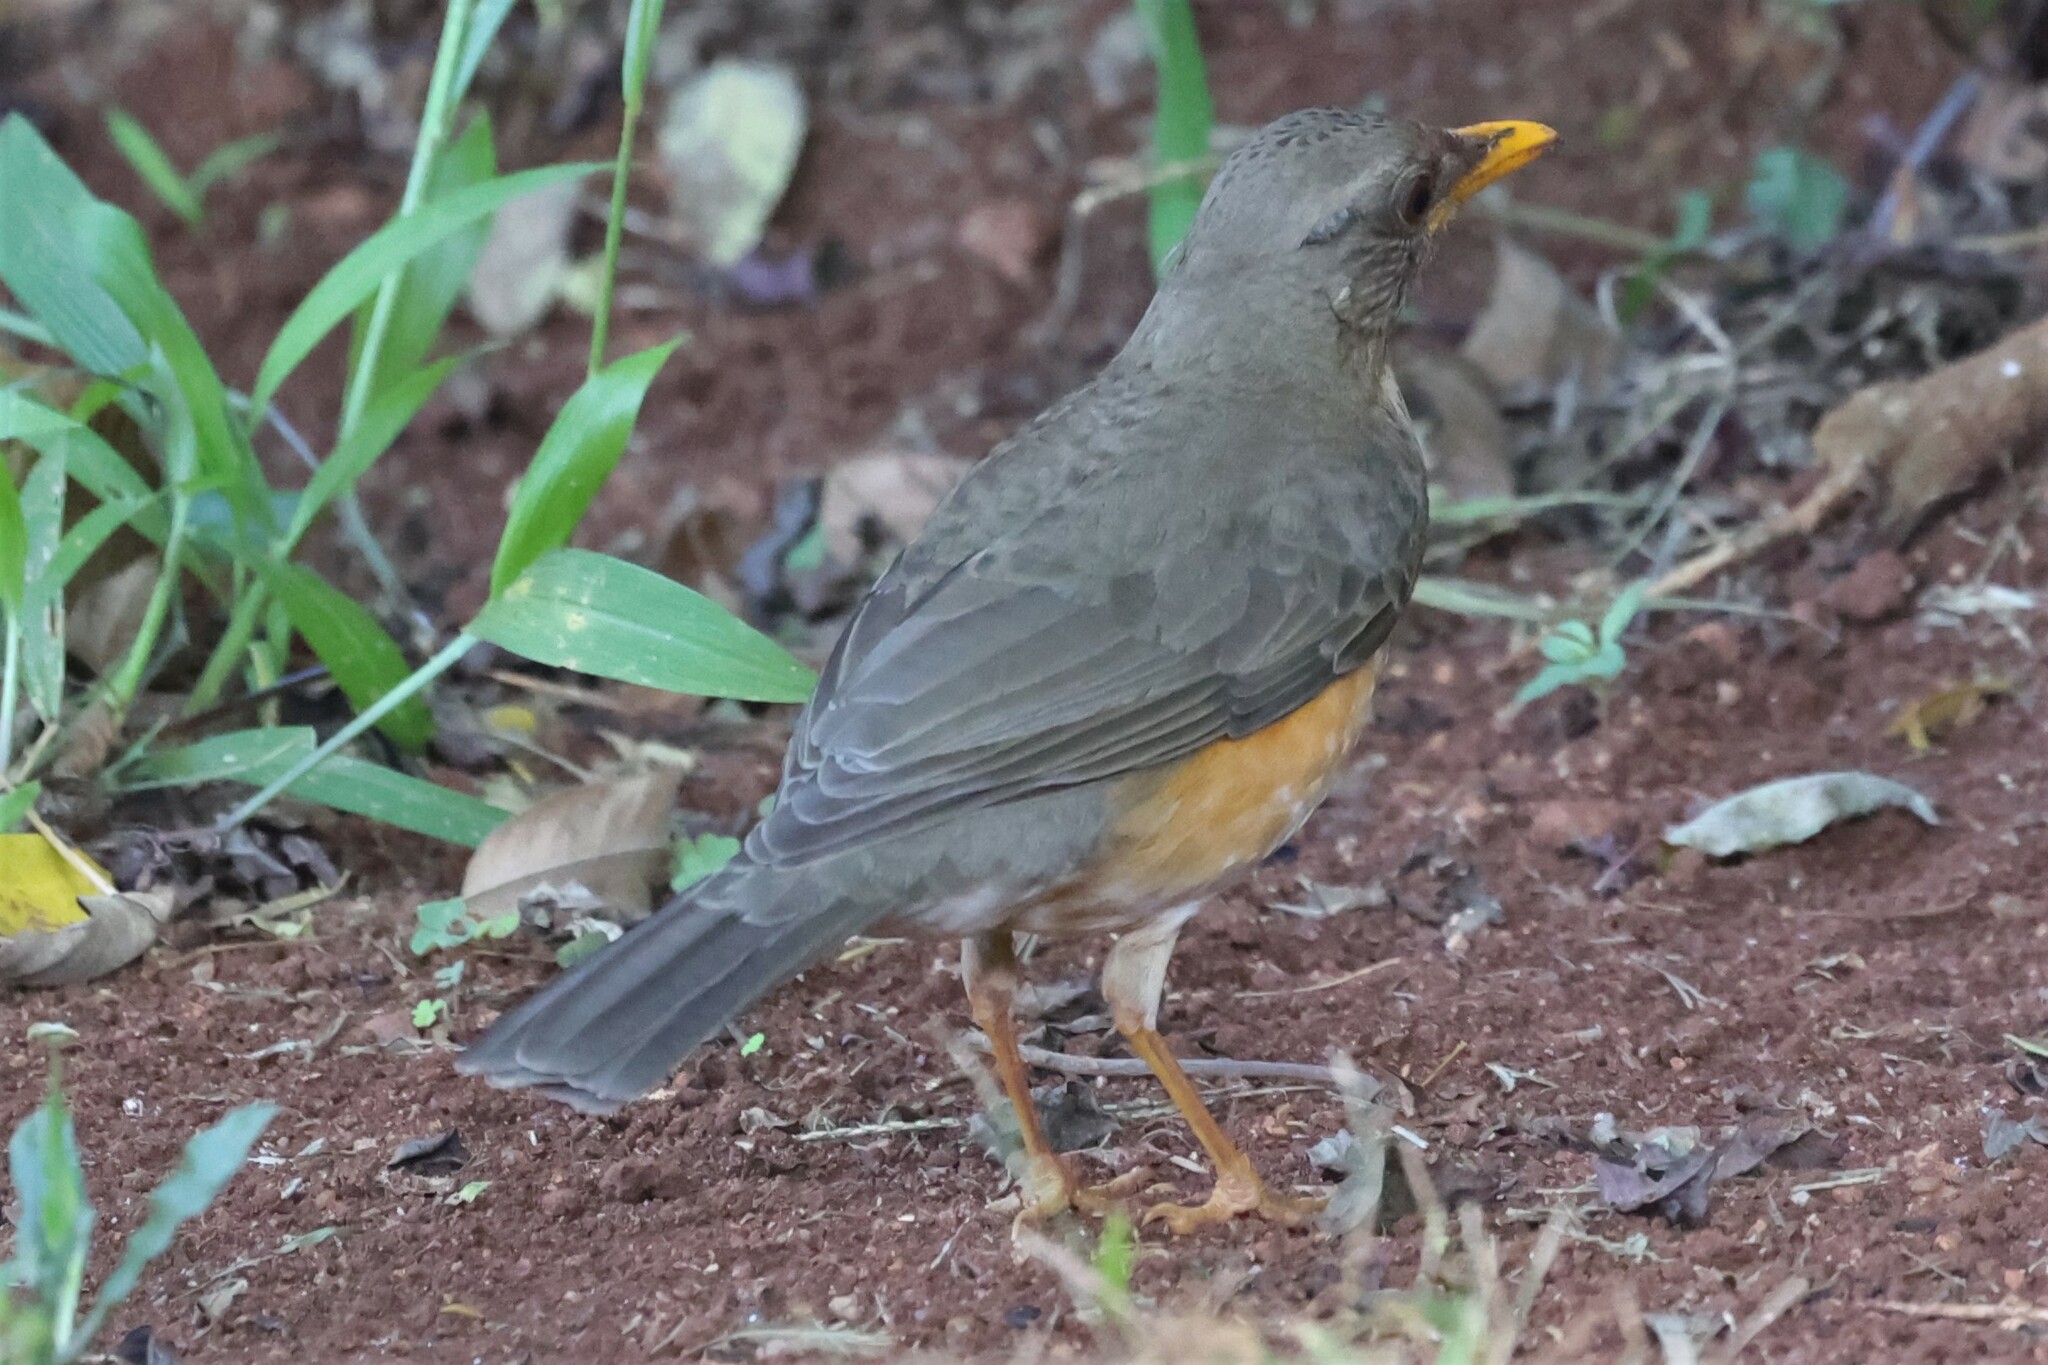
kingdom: Animalia
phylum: Chordata
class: Aves
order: Passeriformes
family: Turdidae
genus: Turdus
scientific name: Turdus pelios
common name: African thrush
